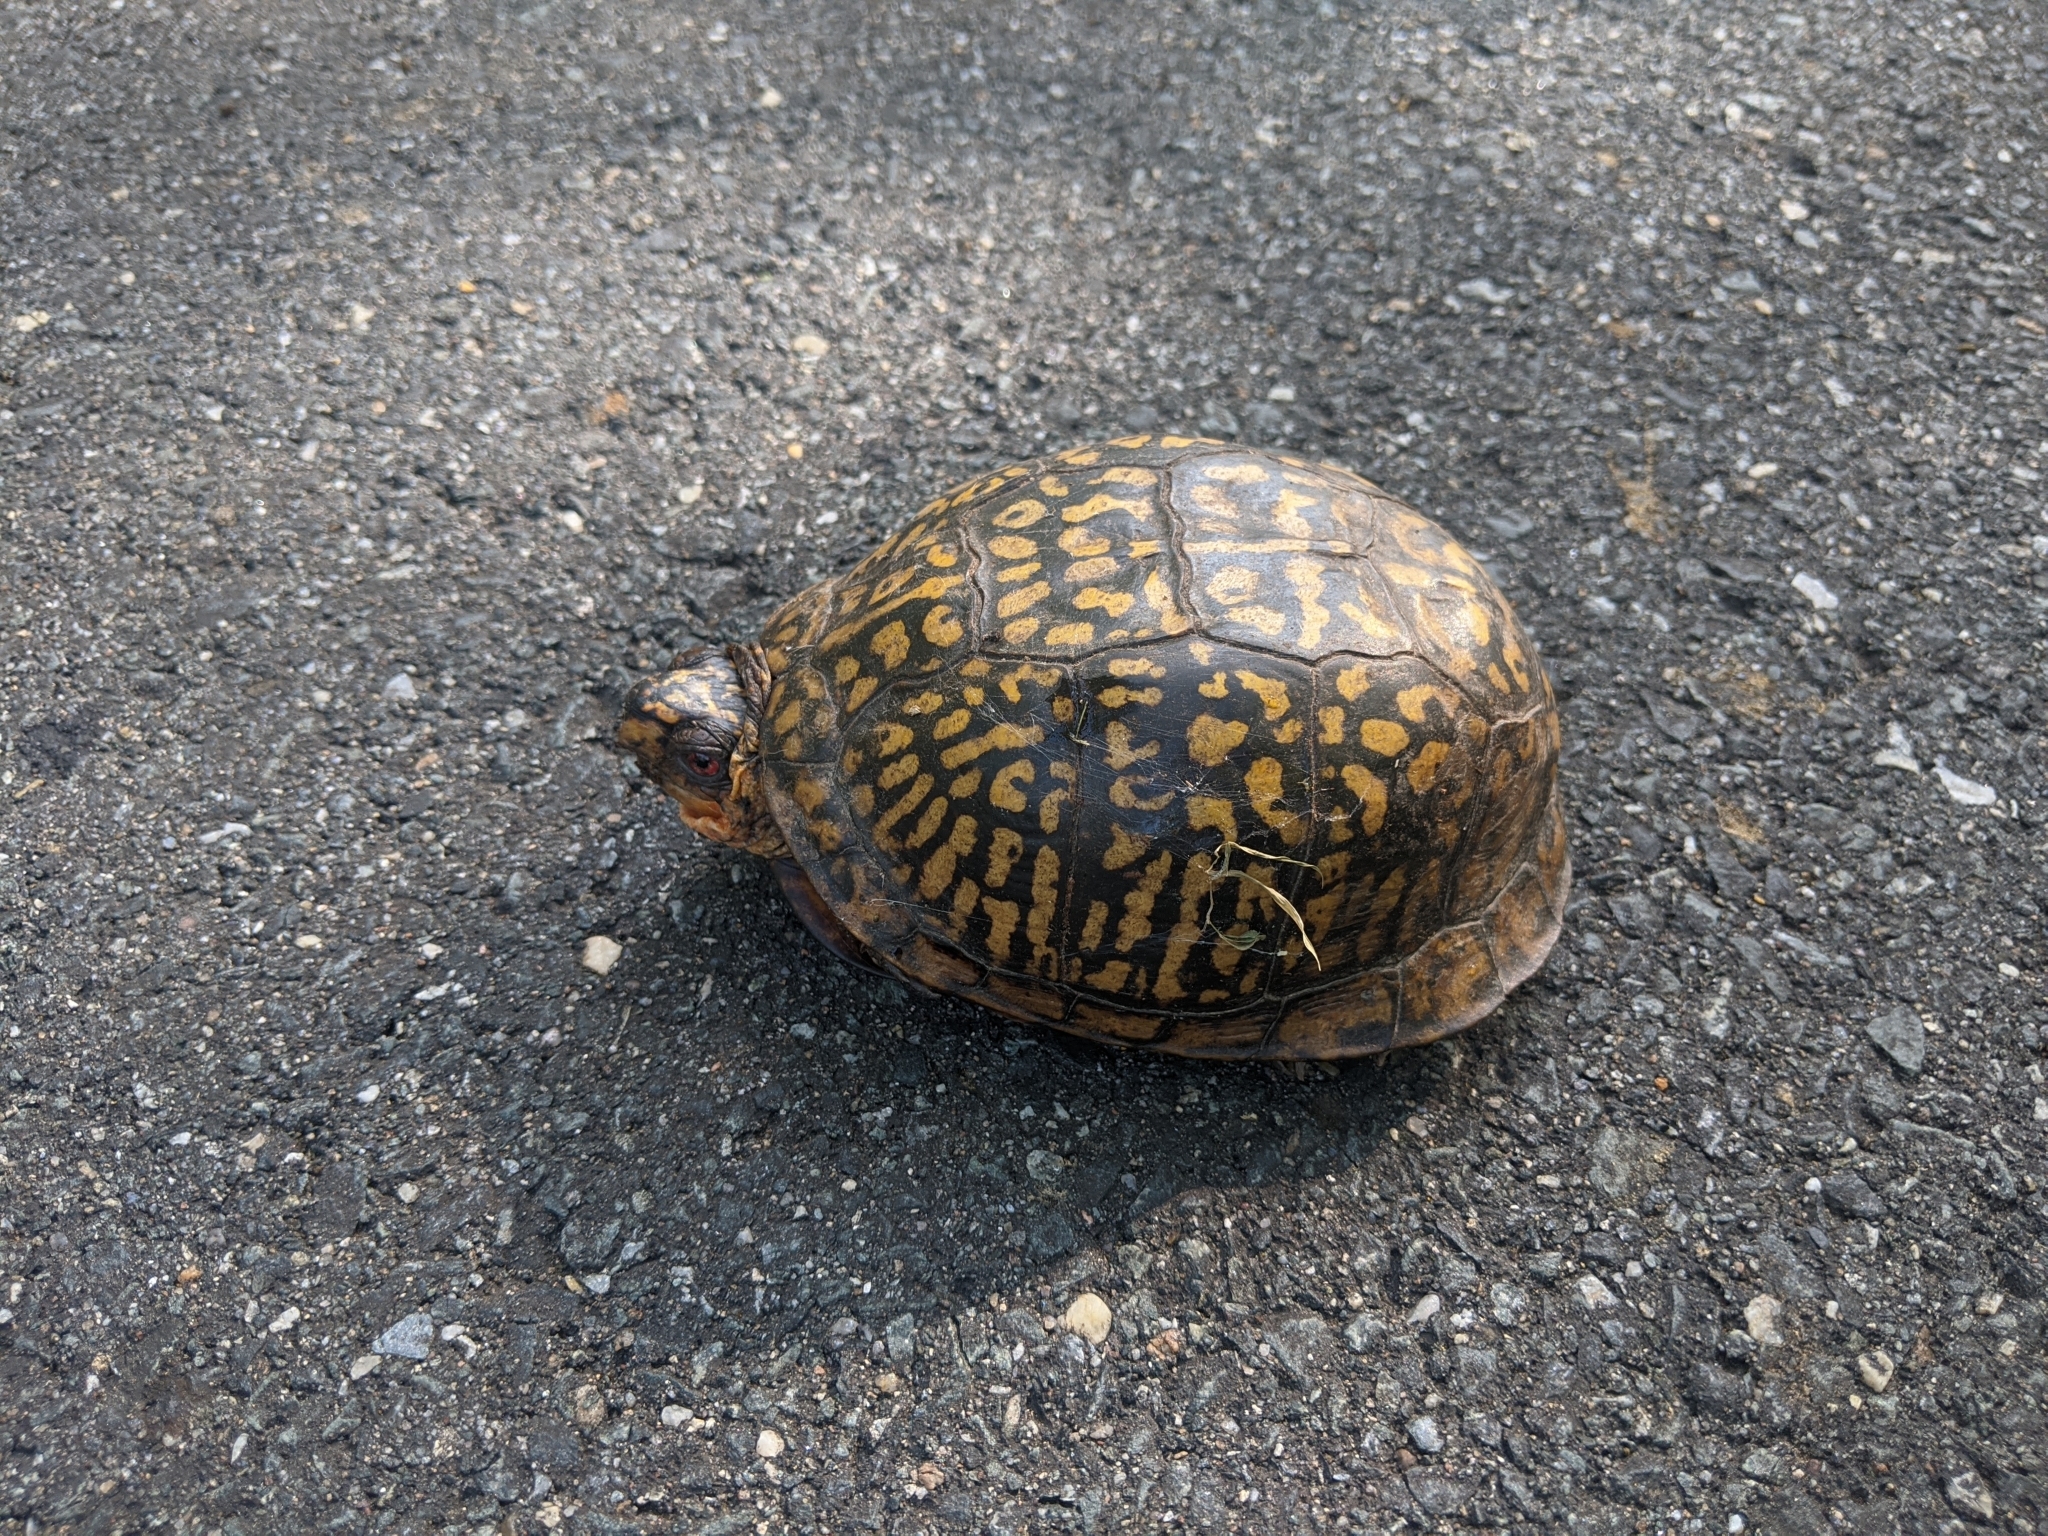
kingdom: Animalia
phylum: Chordata
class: Testudines
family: Emydidae
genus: Terrapene
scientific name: Terrapene carolina
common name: Common box turtle
